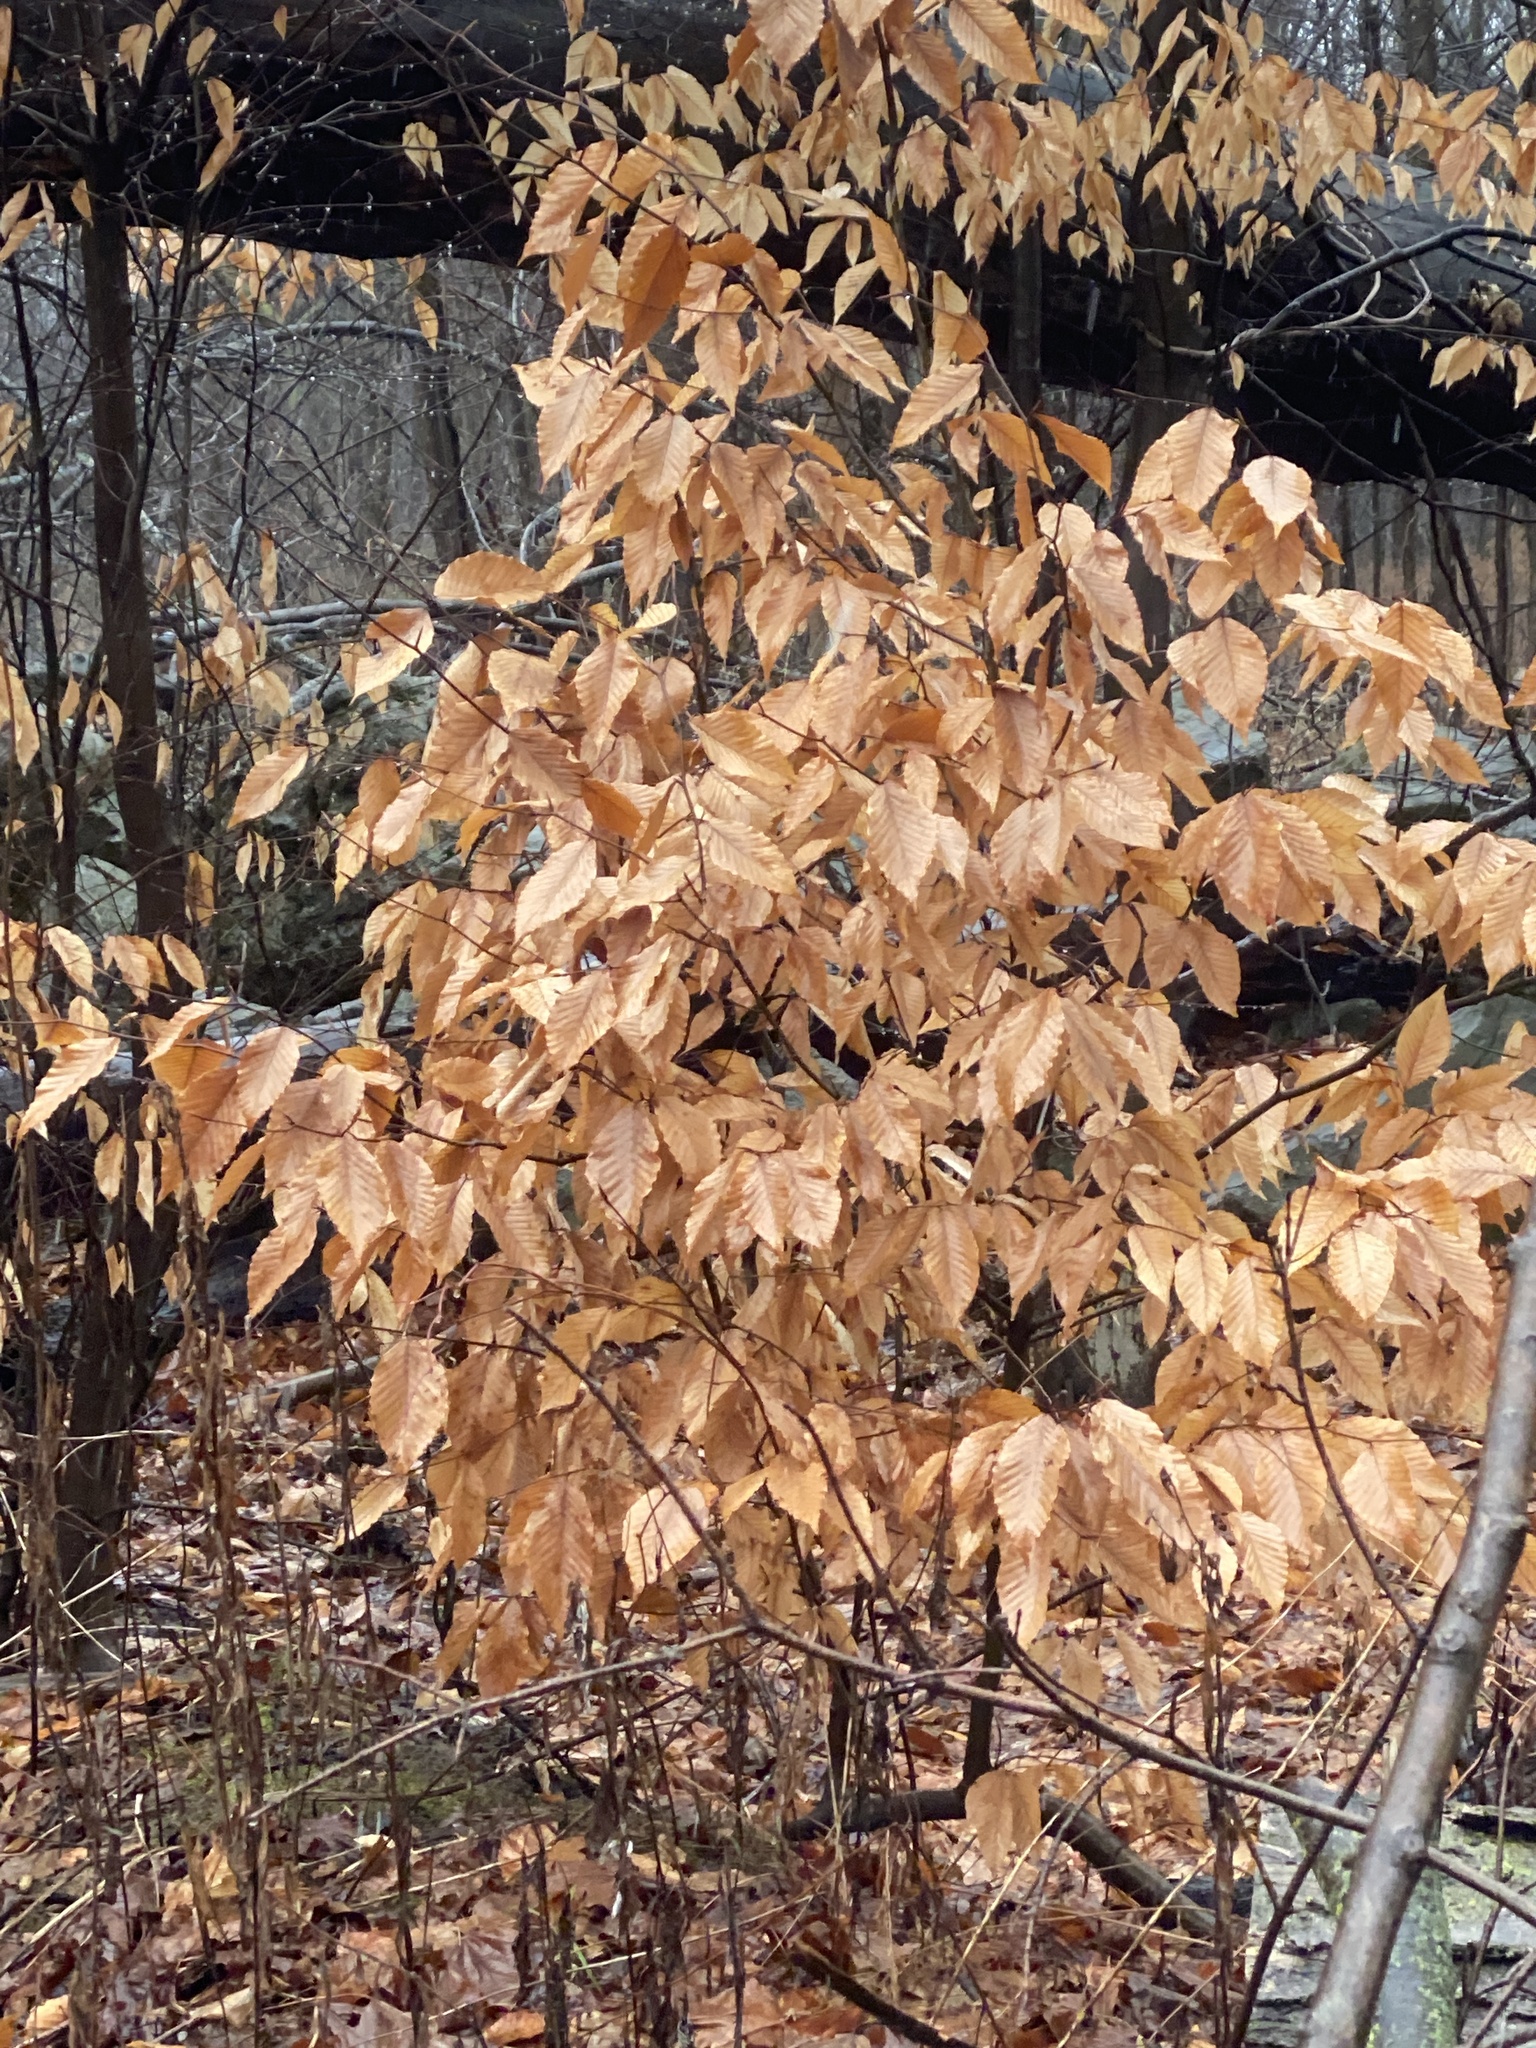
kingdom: Plantae
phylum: Tracheophyta
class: Magnoliopsida
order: Fagales
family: Fagaceae
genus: Fagus
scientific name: Fagus grandifolia
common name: American beech
